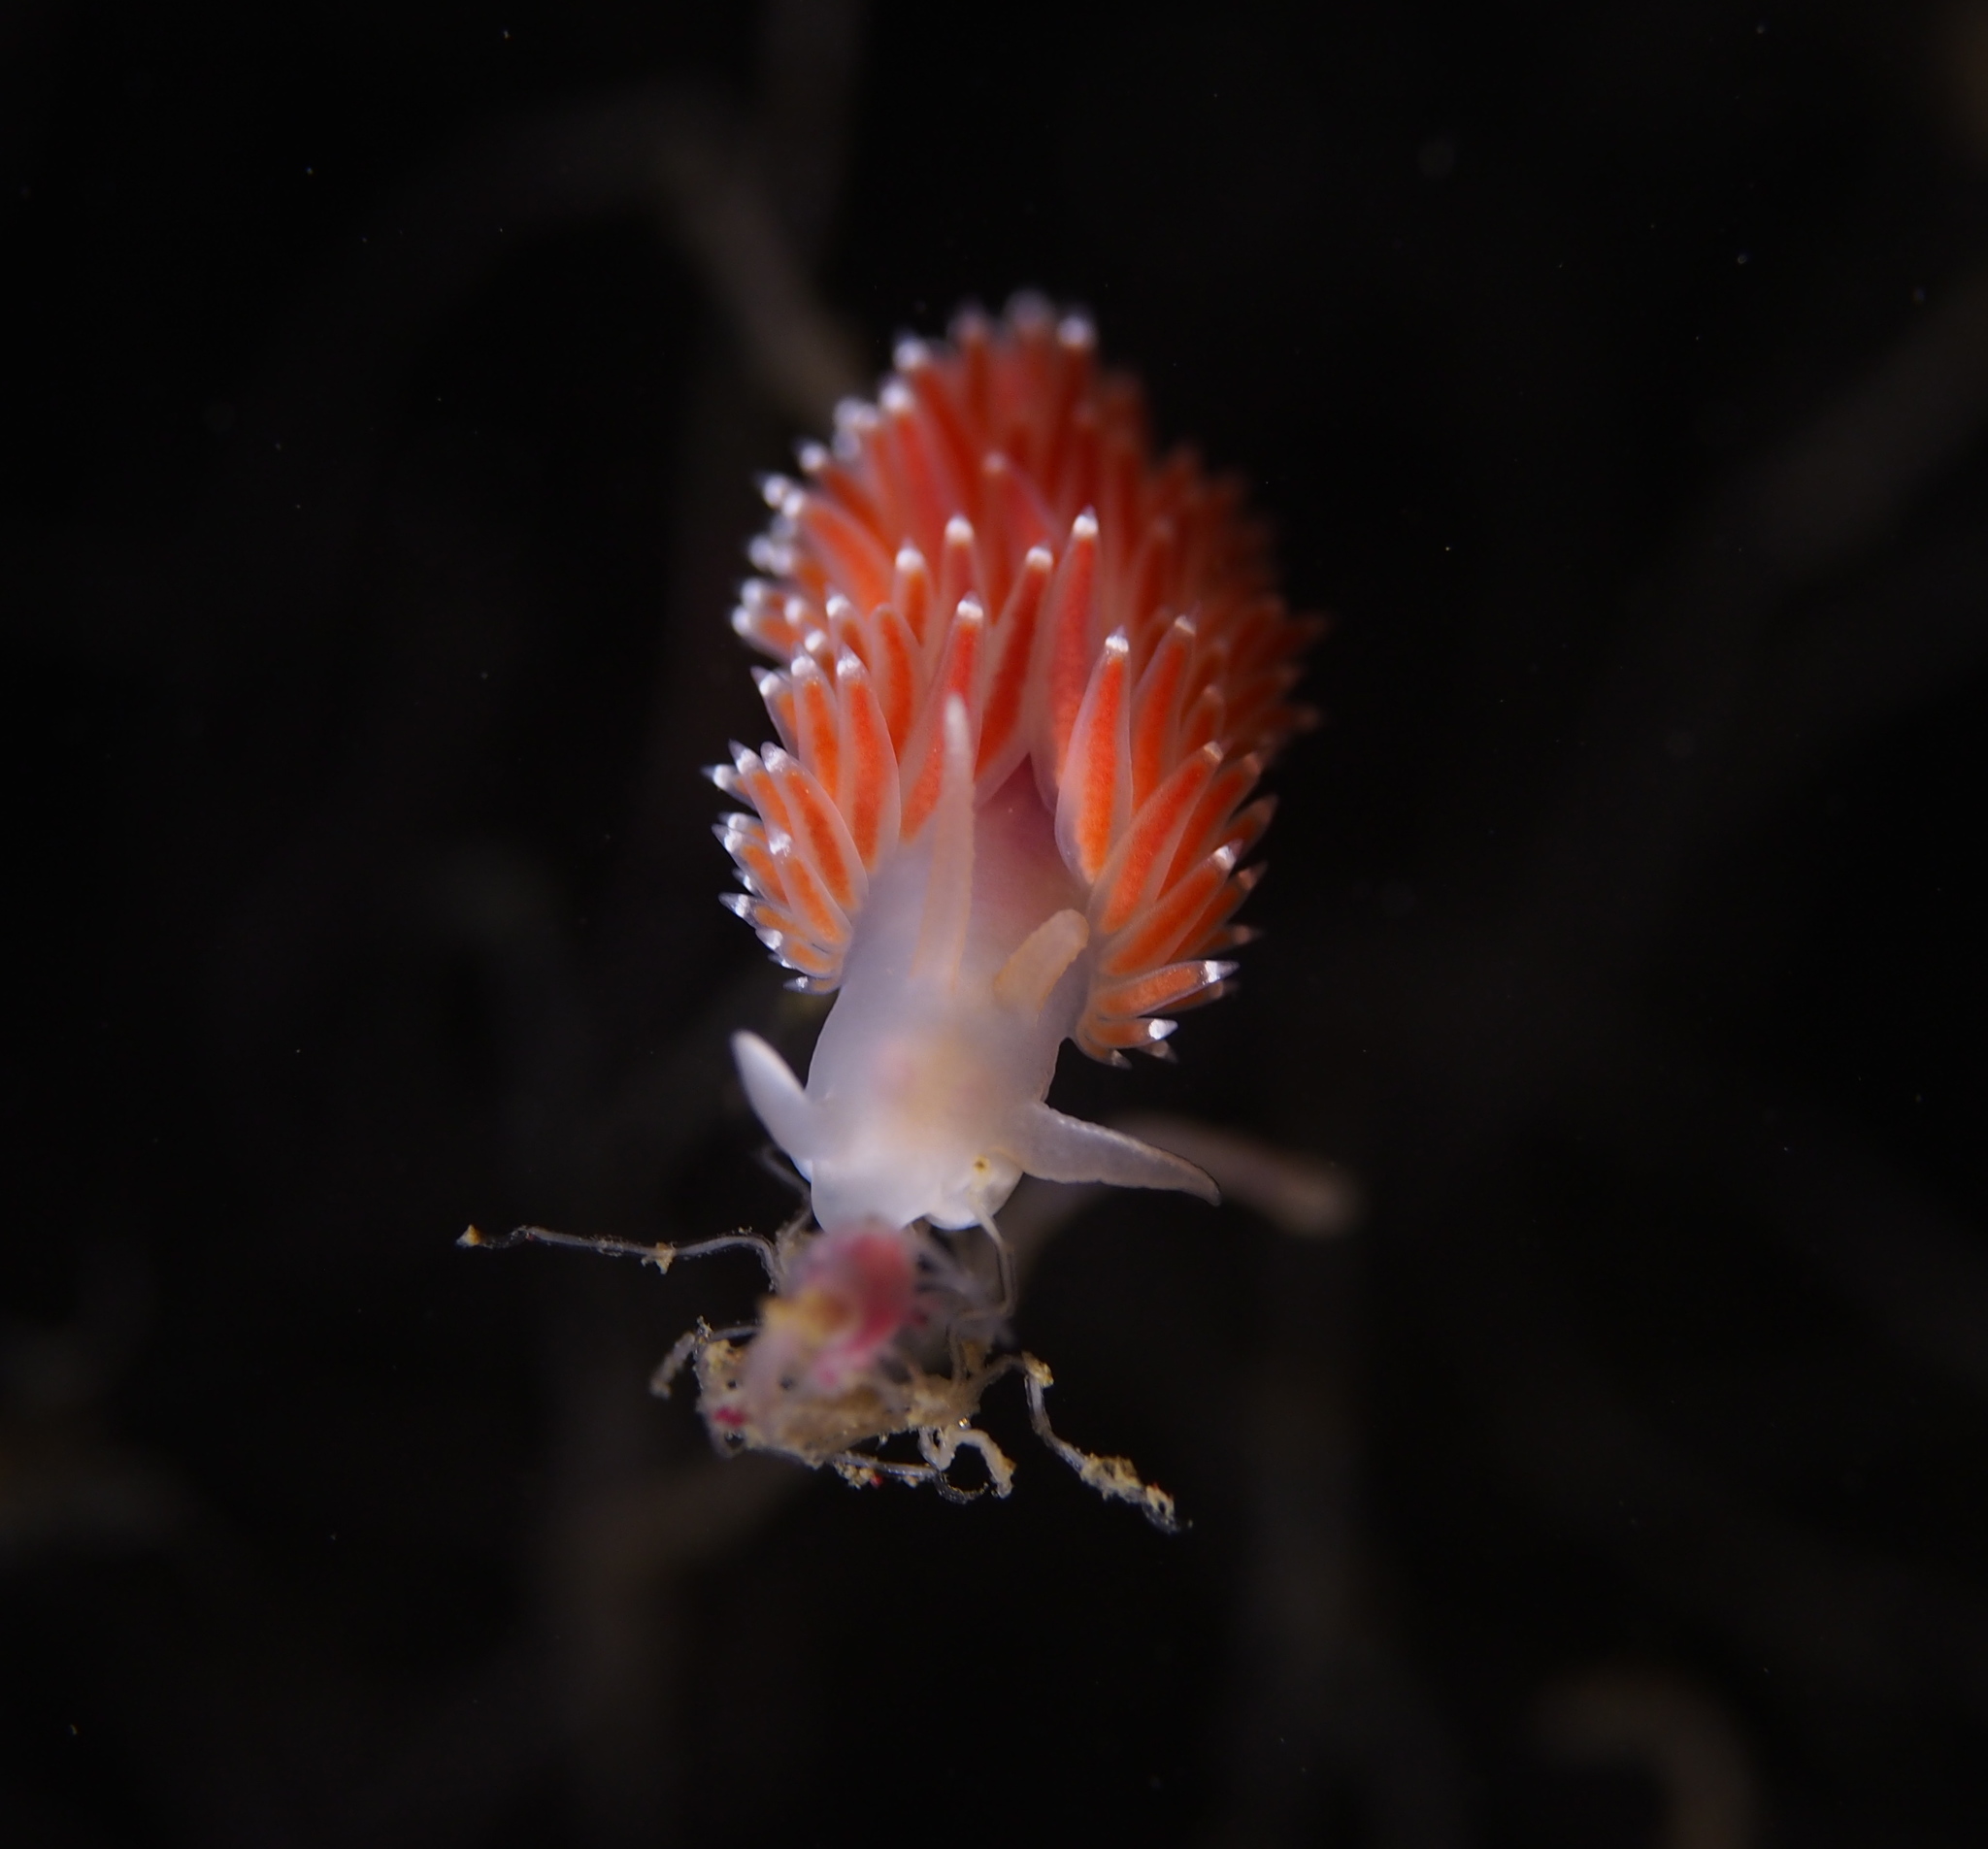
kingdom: Animalia
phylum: Mollusca
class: Gastropoda
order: Nudibranchia
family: Coryphellidae
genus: Coryphella
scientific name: Coryphella verrucosa
